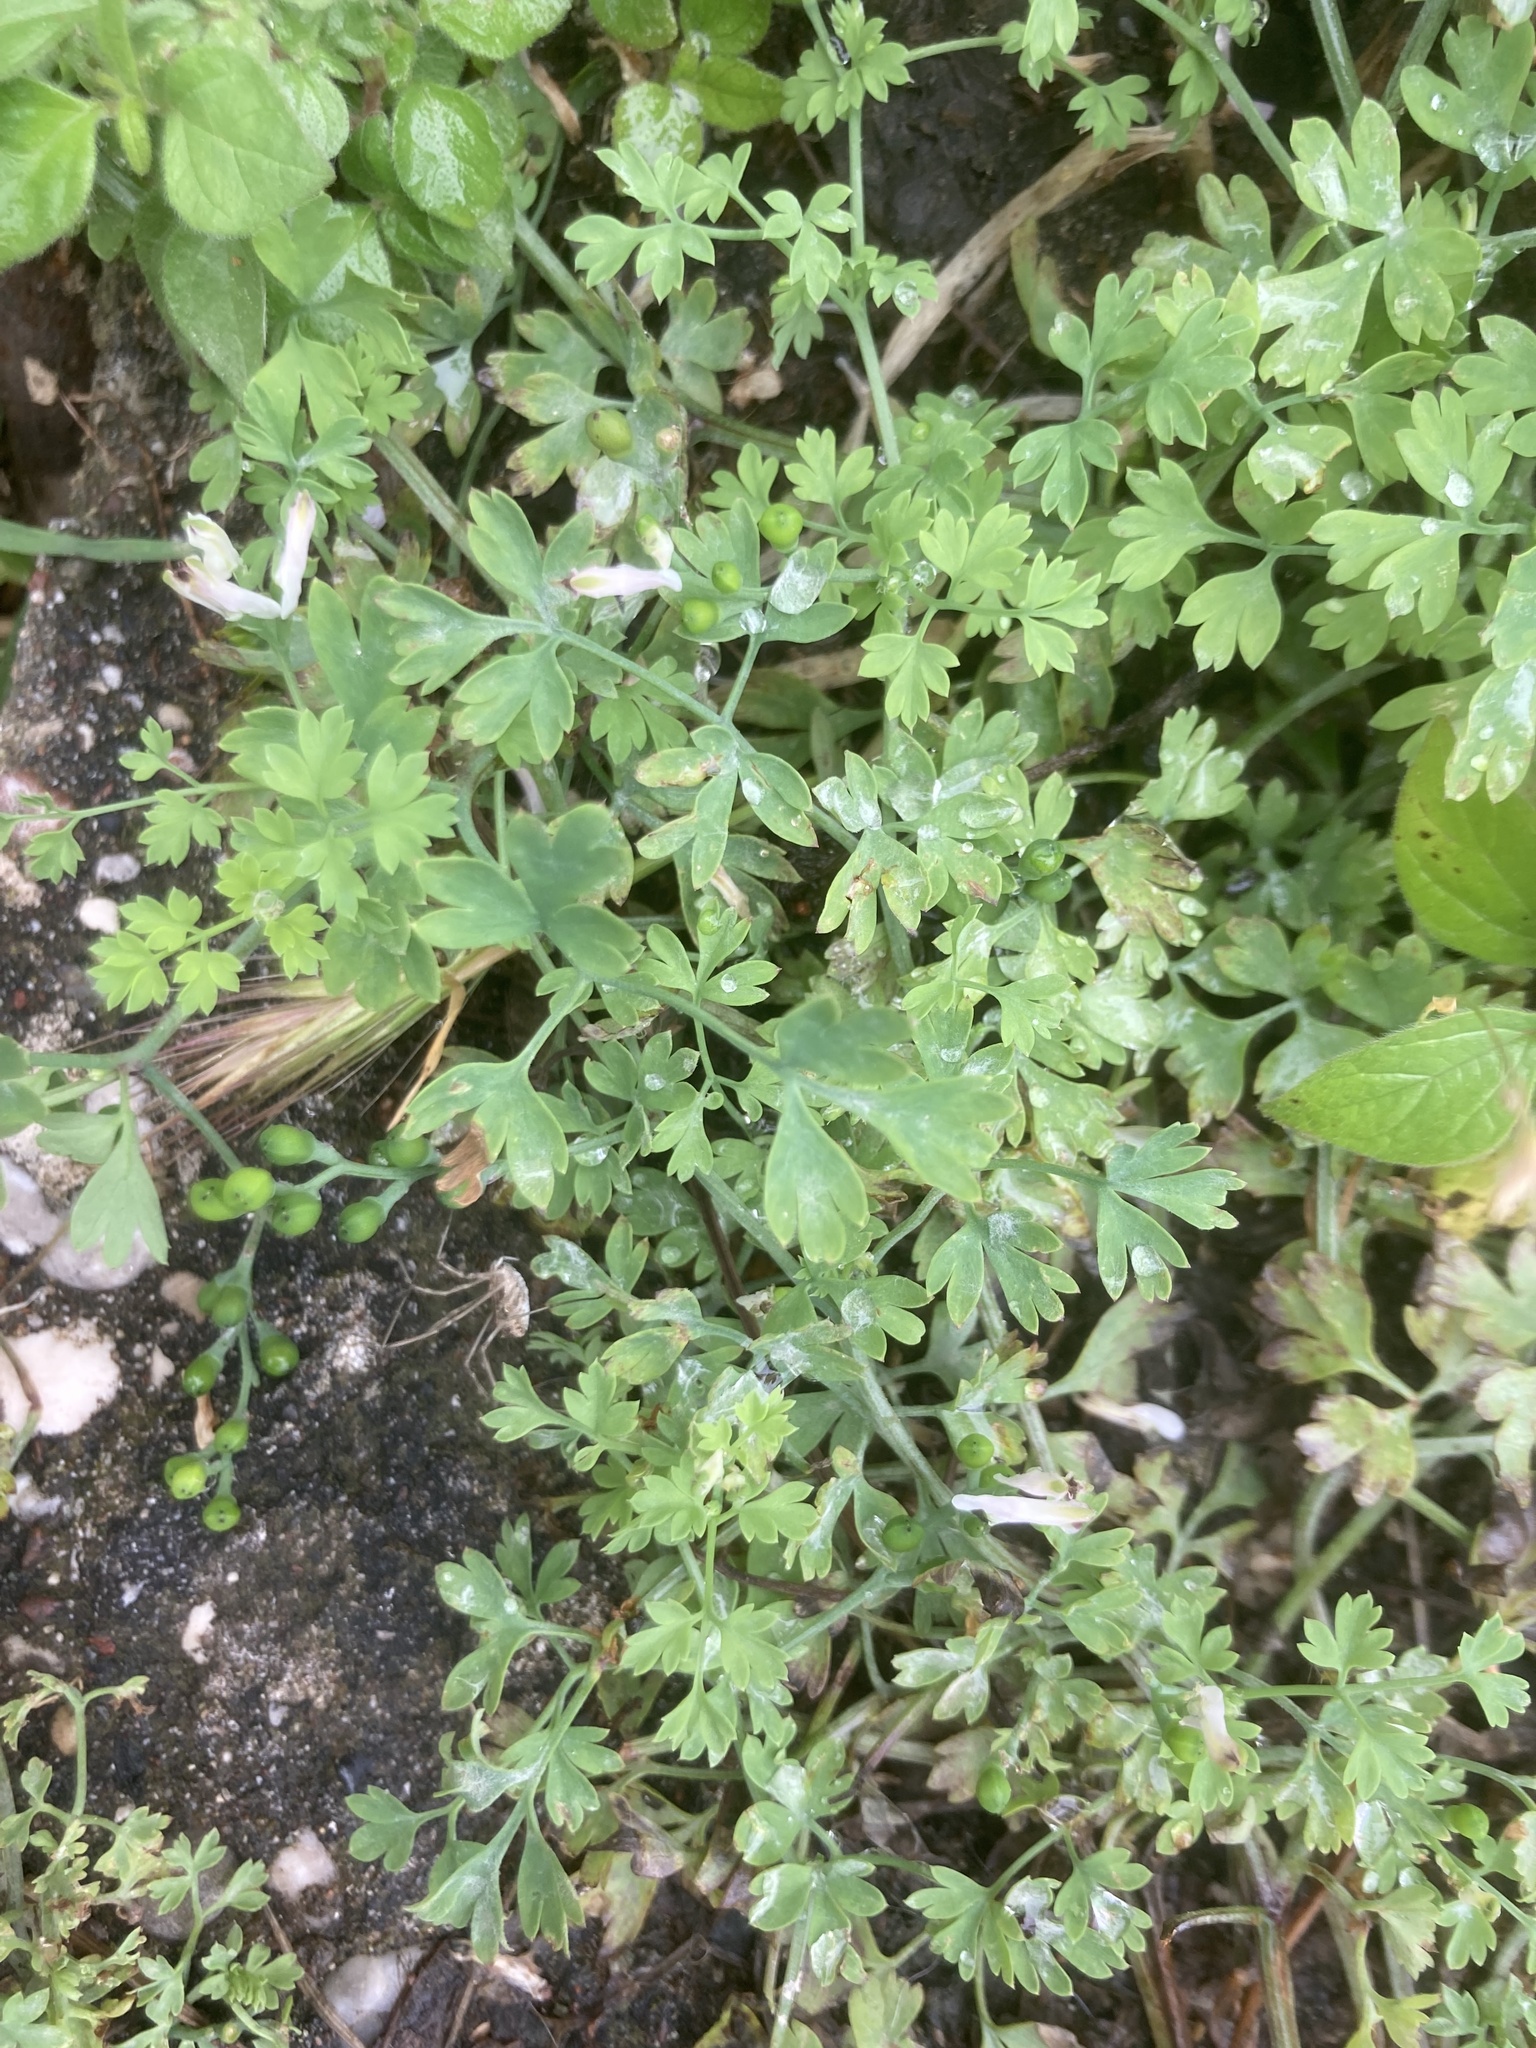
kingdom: Plantae
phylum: Tracheophyta
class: Magnoliopsida
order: Ranunculales
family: Papaveraceae
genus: Fumaria
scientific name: Fumaria judaica
